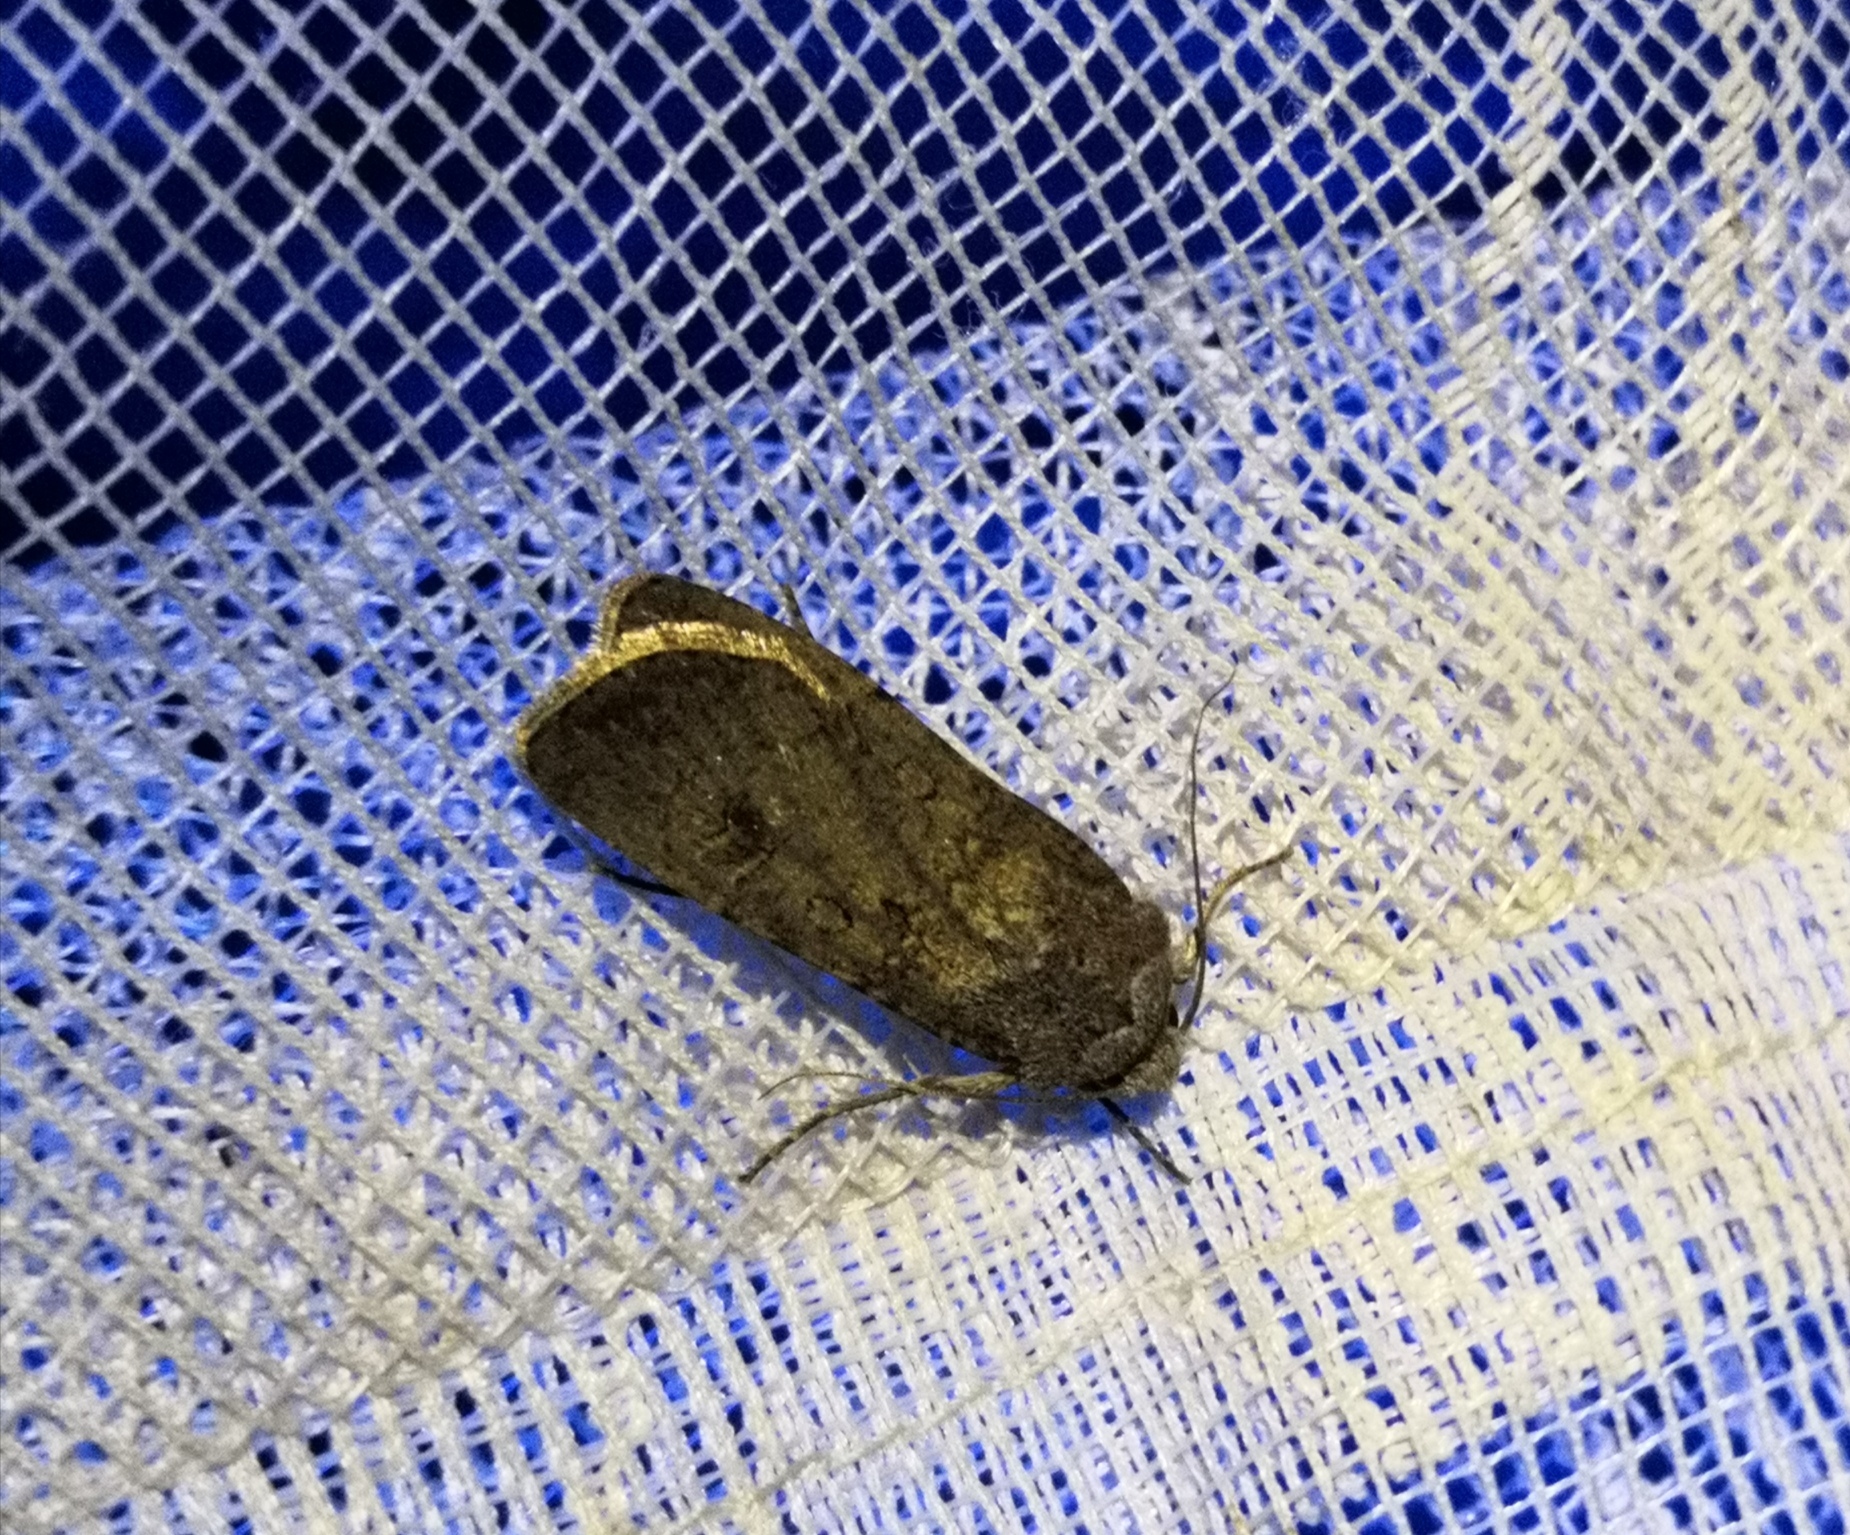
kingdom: Animalia
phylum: Arthropoda
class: Insecta
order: Lepidoptera
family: Noctuidae
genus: Agrotis
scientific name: Agrotis segetum
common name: Turnip moth
